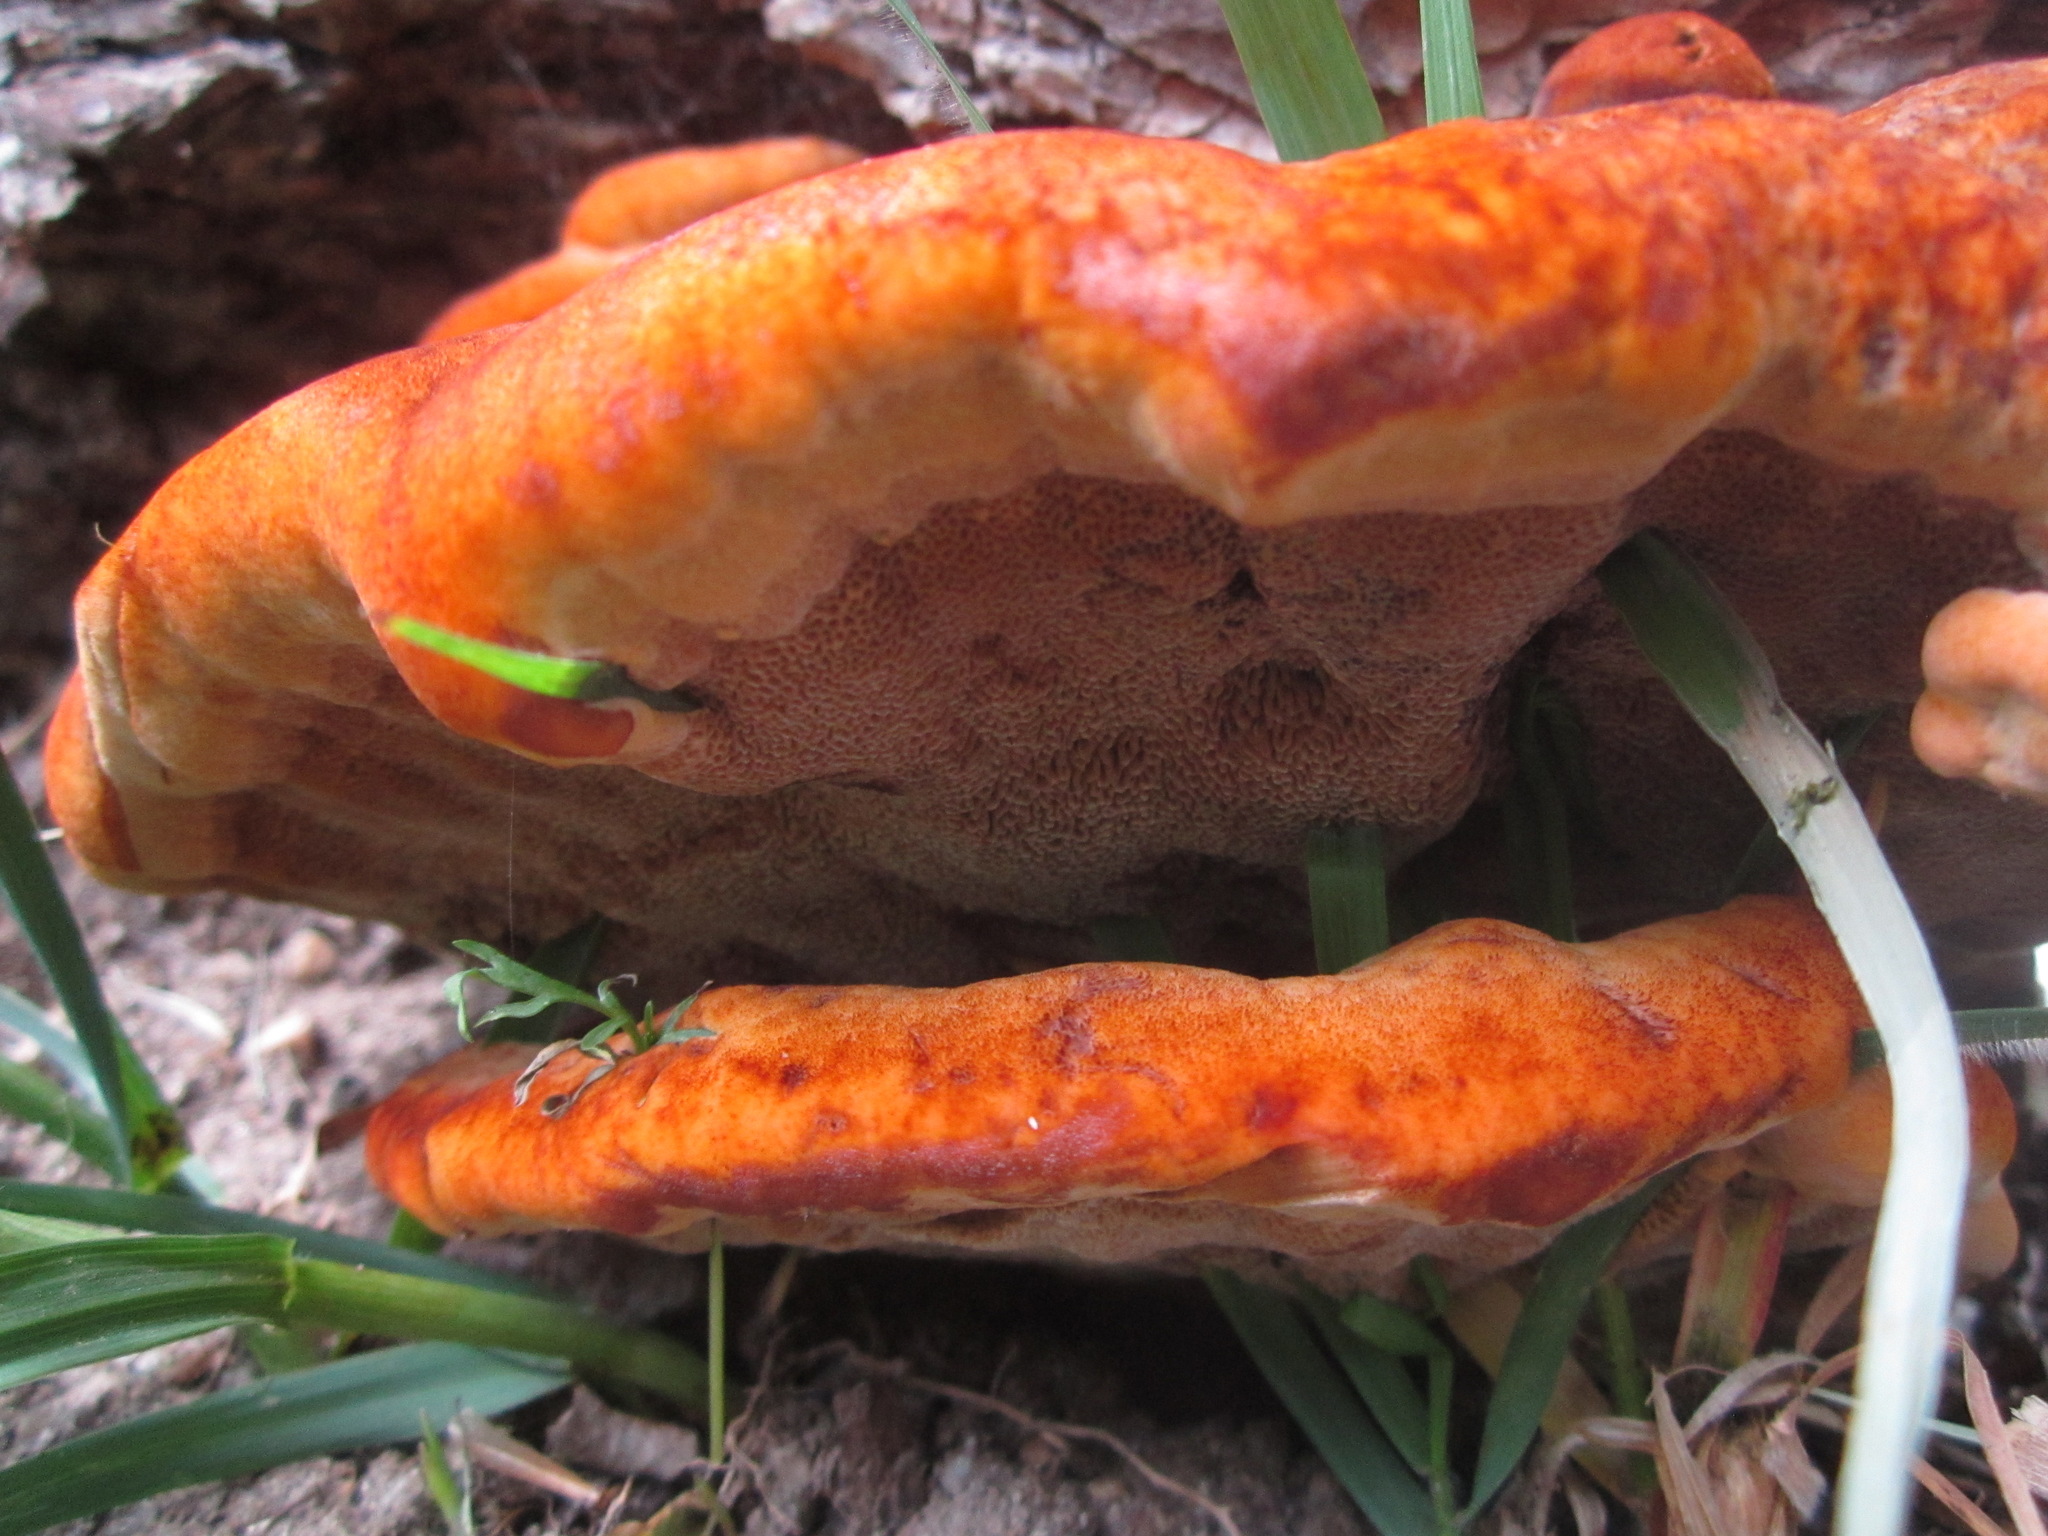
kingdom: Fungi
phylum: Basidiomycota
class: Agaricomycetes
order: Polyporales
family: Laetiporaceae
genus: Phaeolus
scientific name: Phaeolus schweinitzii
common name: Dyer's mazegill
